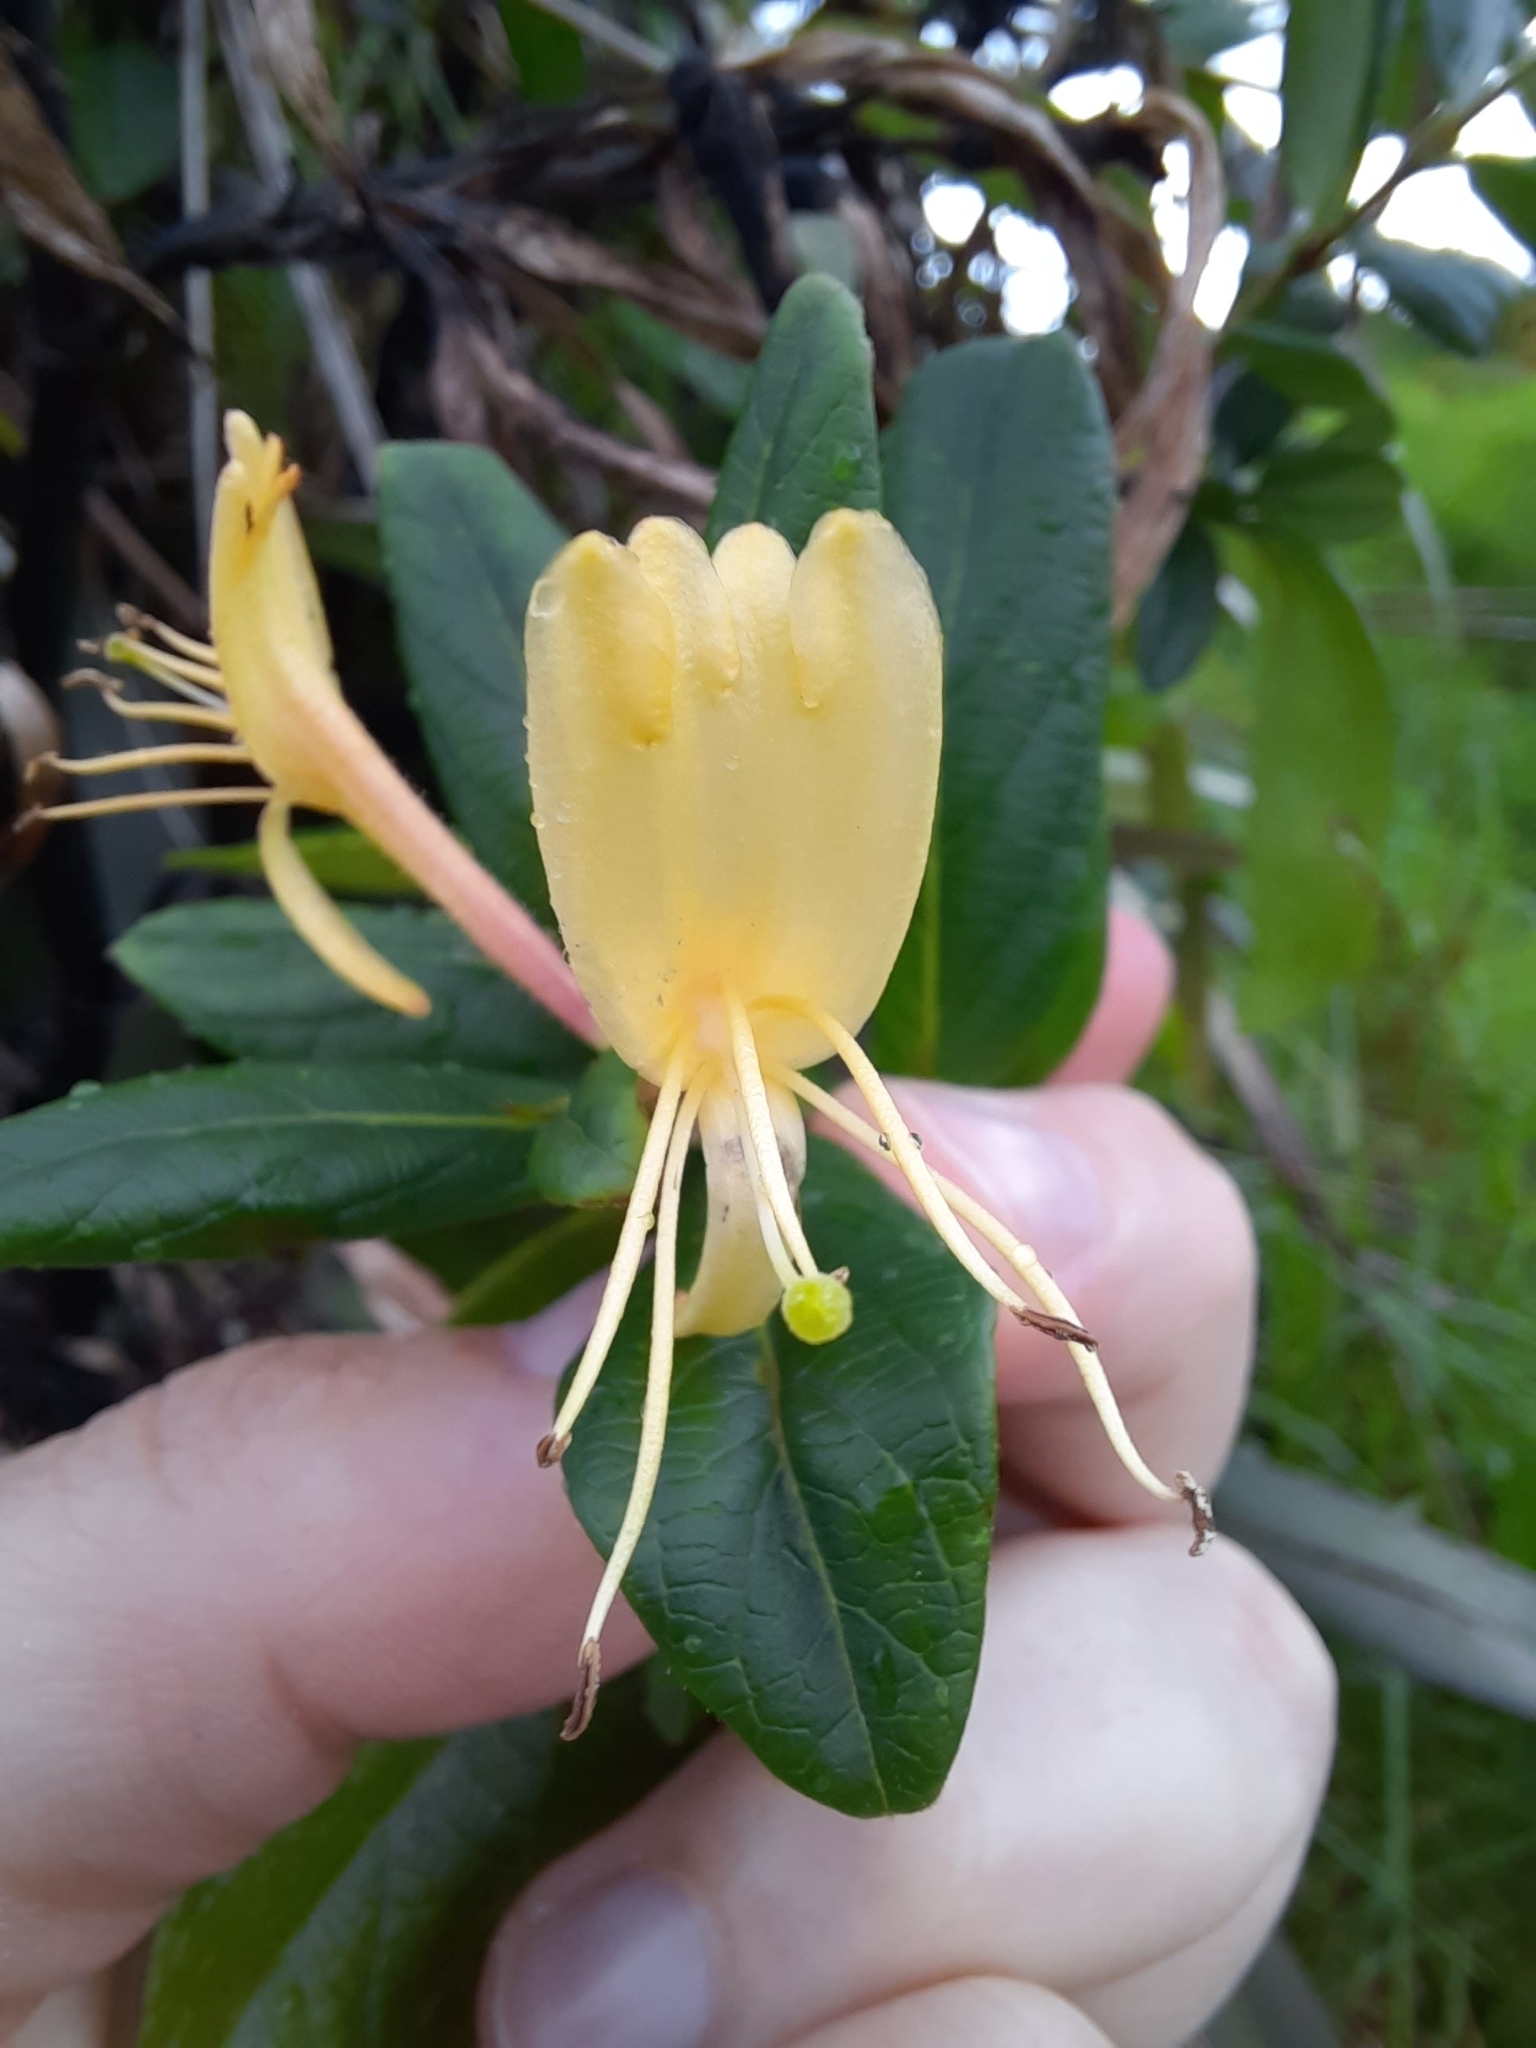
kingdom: Plantae
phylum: Tracheophyta
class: Magnoliopsida
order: Dipsacales
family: Caprifoliaceae
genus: Lonicera
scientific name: Lonicera japonica
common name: Japanese honeysuckle
